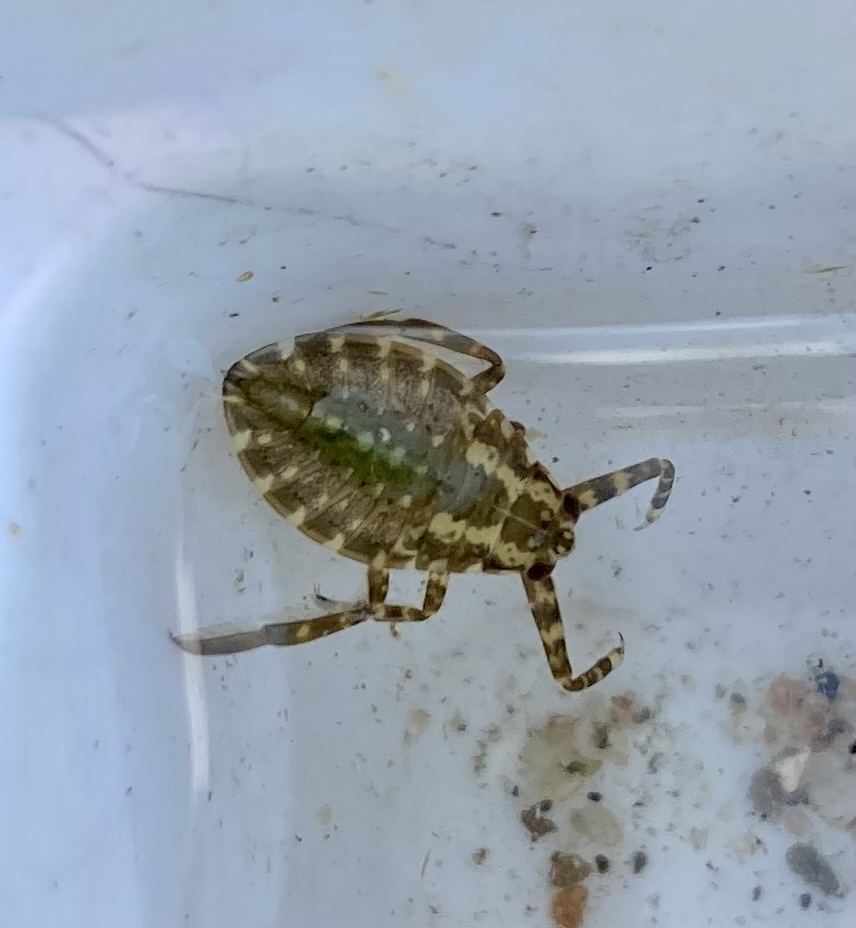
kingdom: Animalia
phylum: Arthropoda
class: Insecta
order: Hemiptera
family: Belostomatidae
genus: Lethocerus
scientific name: Lethocerus americanus
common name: Giant water bug
